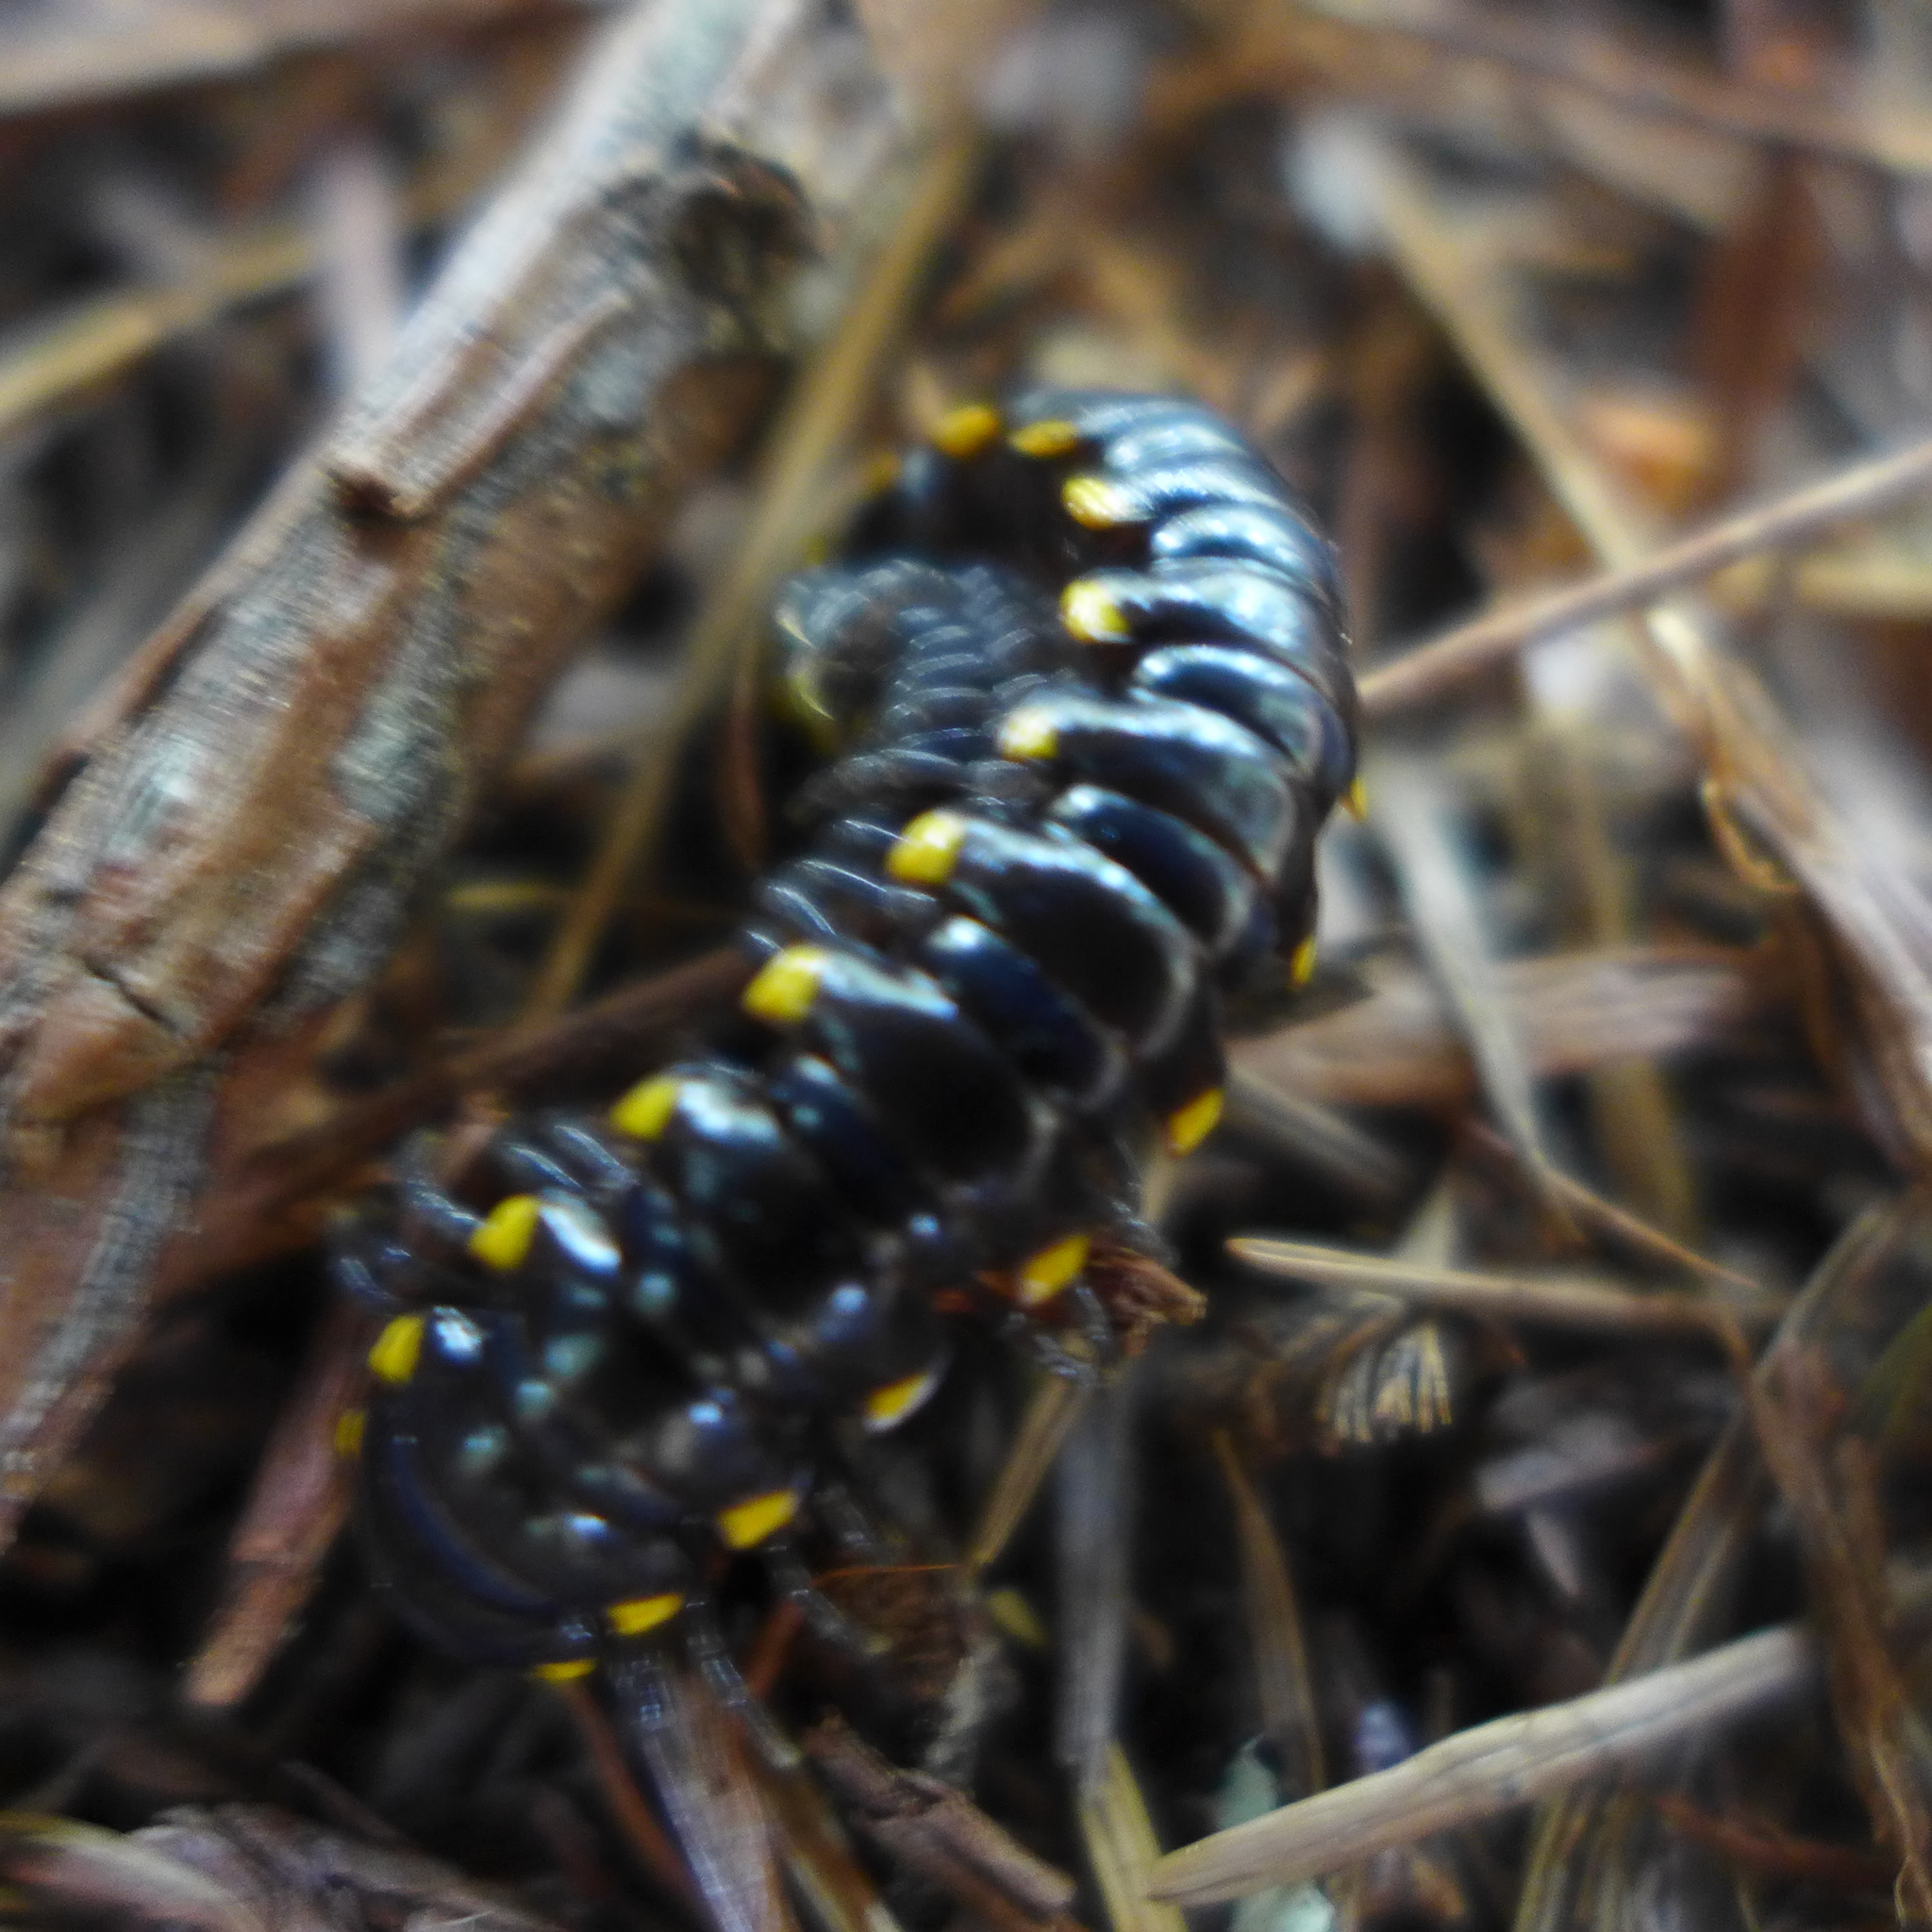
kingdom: Animalia
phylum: Arthropoda
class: Diplopoda
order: Polydesmida
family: Xystodesmidae
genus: Harpaphe
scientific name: Harpaphe haydeniana
